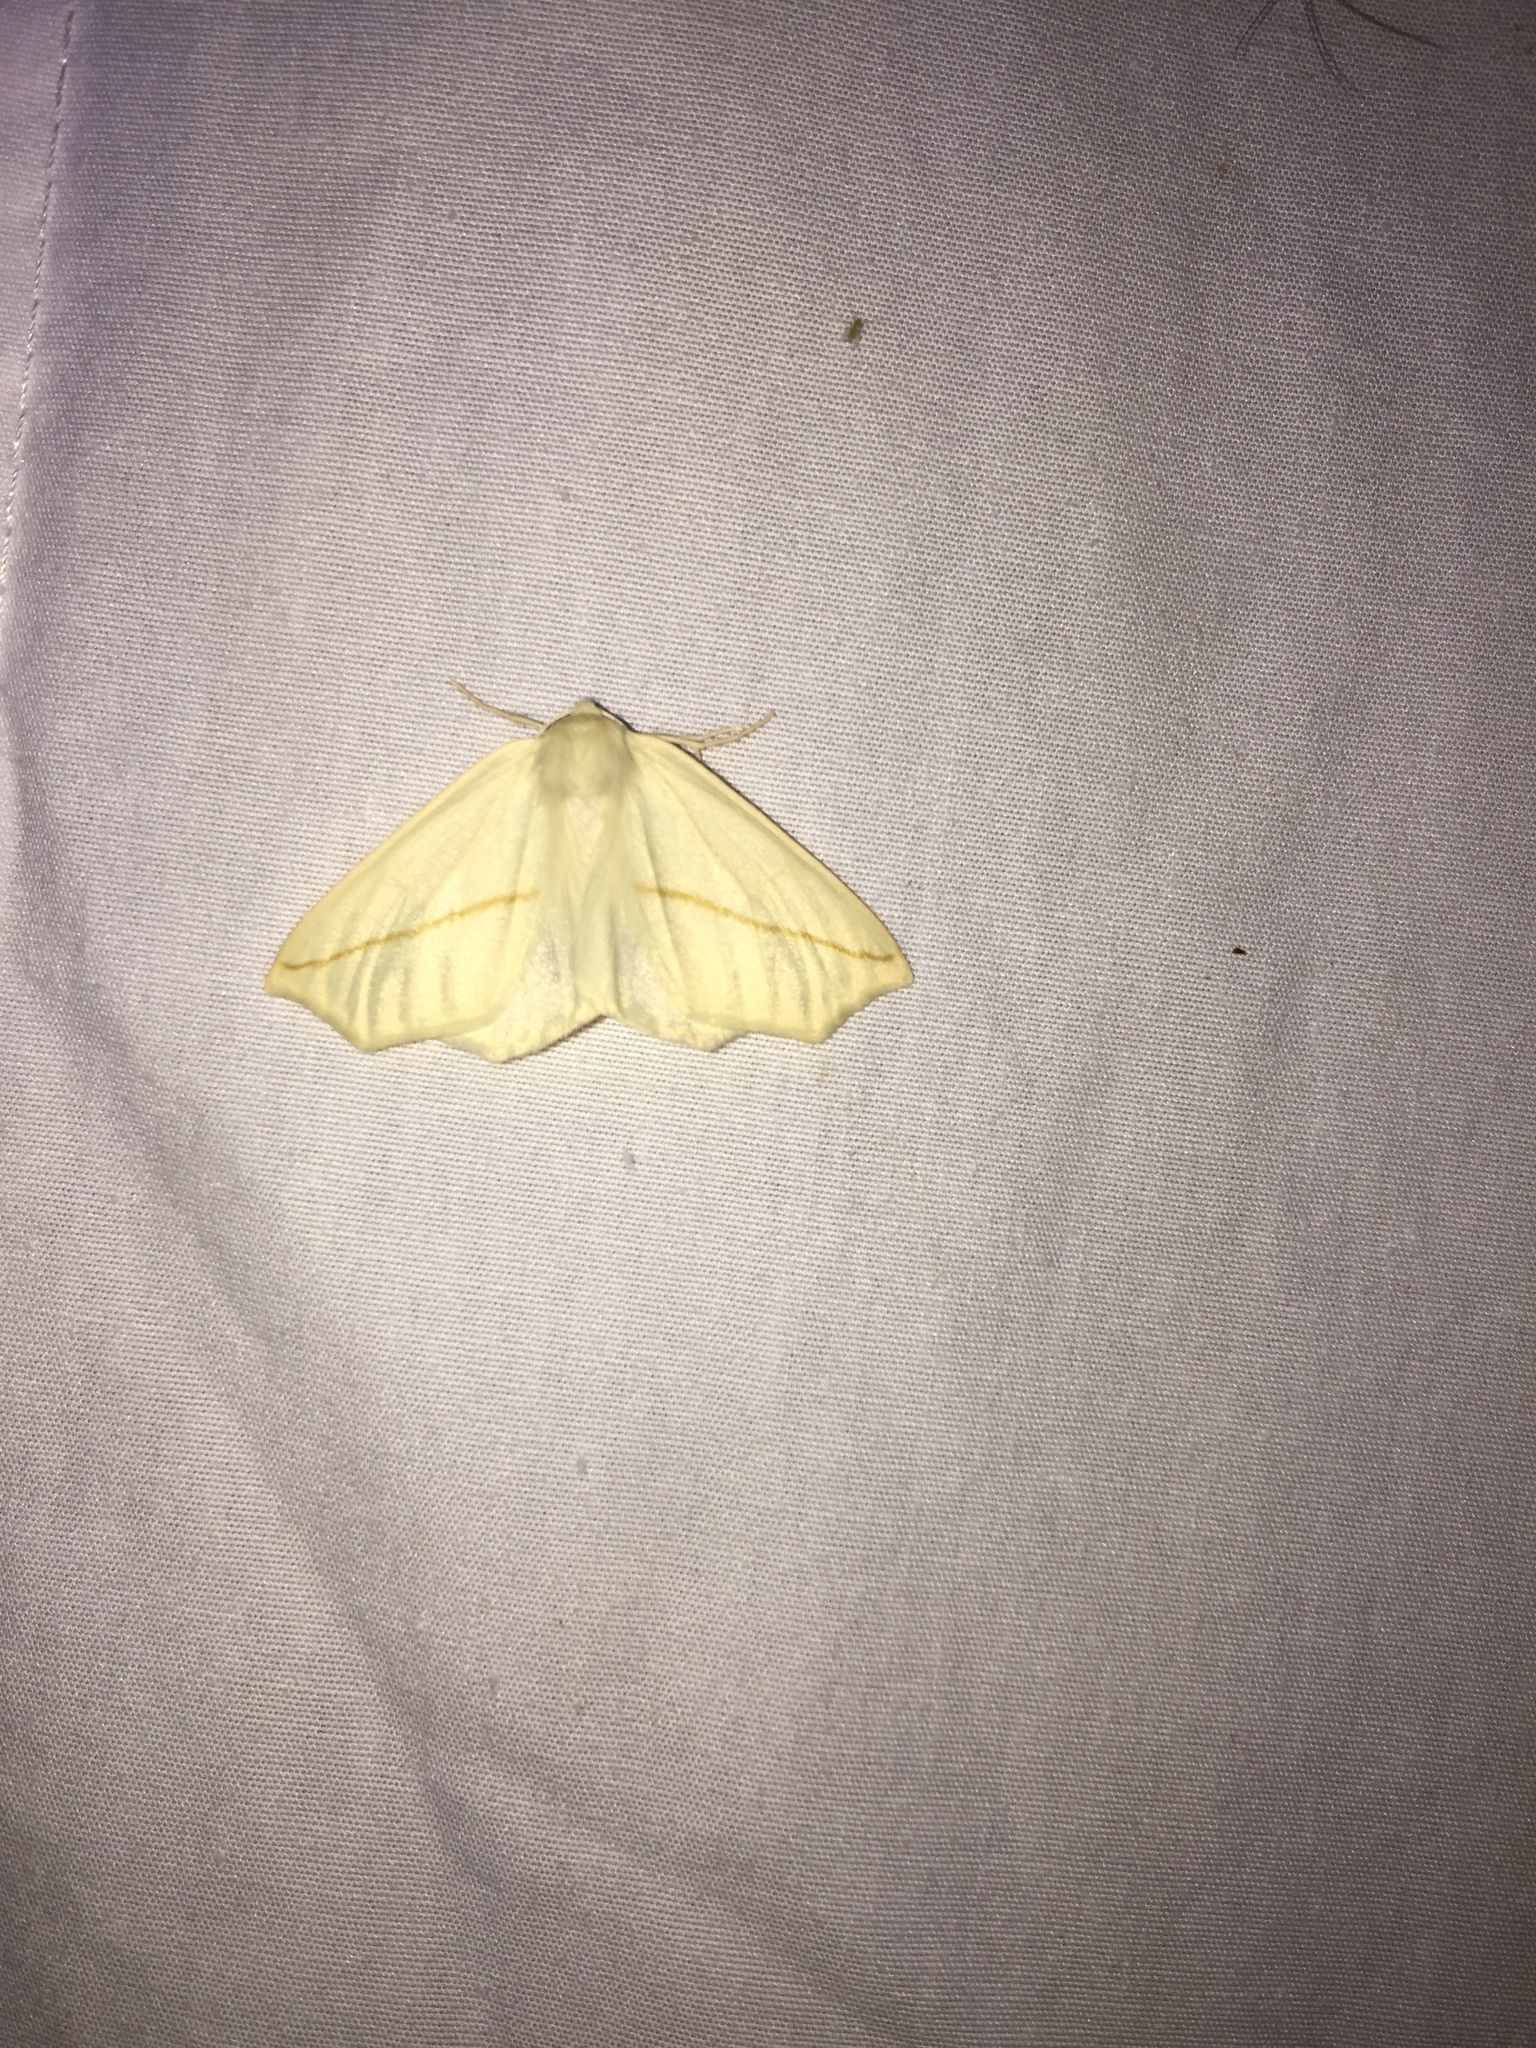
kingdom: Animalia
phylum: Arthropoda
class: Insecta
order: Lepidoptera
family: Geometridae
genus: Tetracis
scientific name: Tetracis cachexiata
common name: White slant-line
